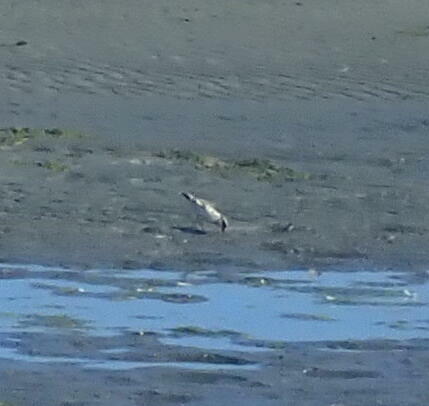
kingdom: Animalia
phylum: Chordata
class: Aves
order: Charadriiformes
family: Charadriidae
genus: Elseyornis
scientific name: Elseyornis melanops
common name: Black-fronted dotterel
